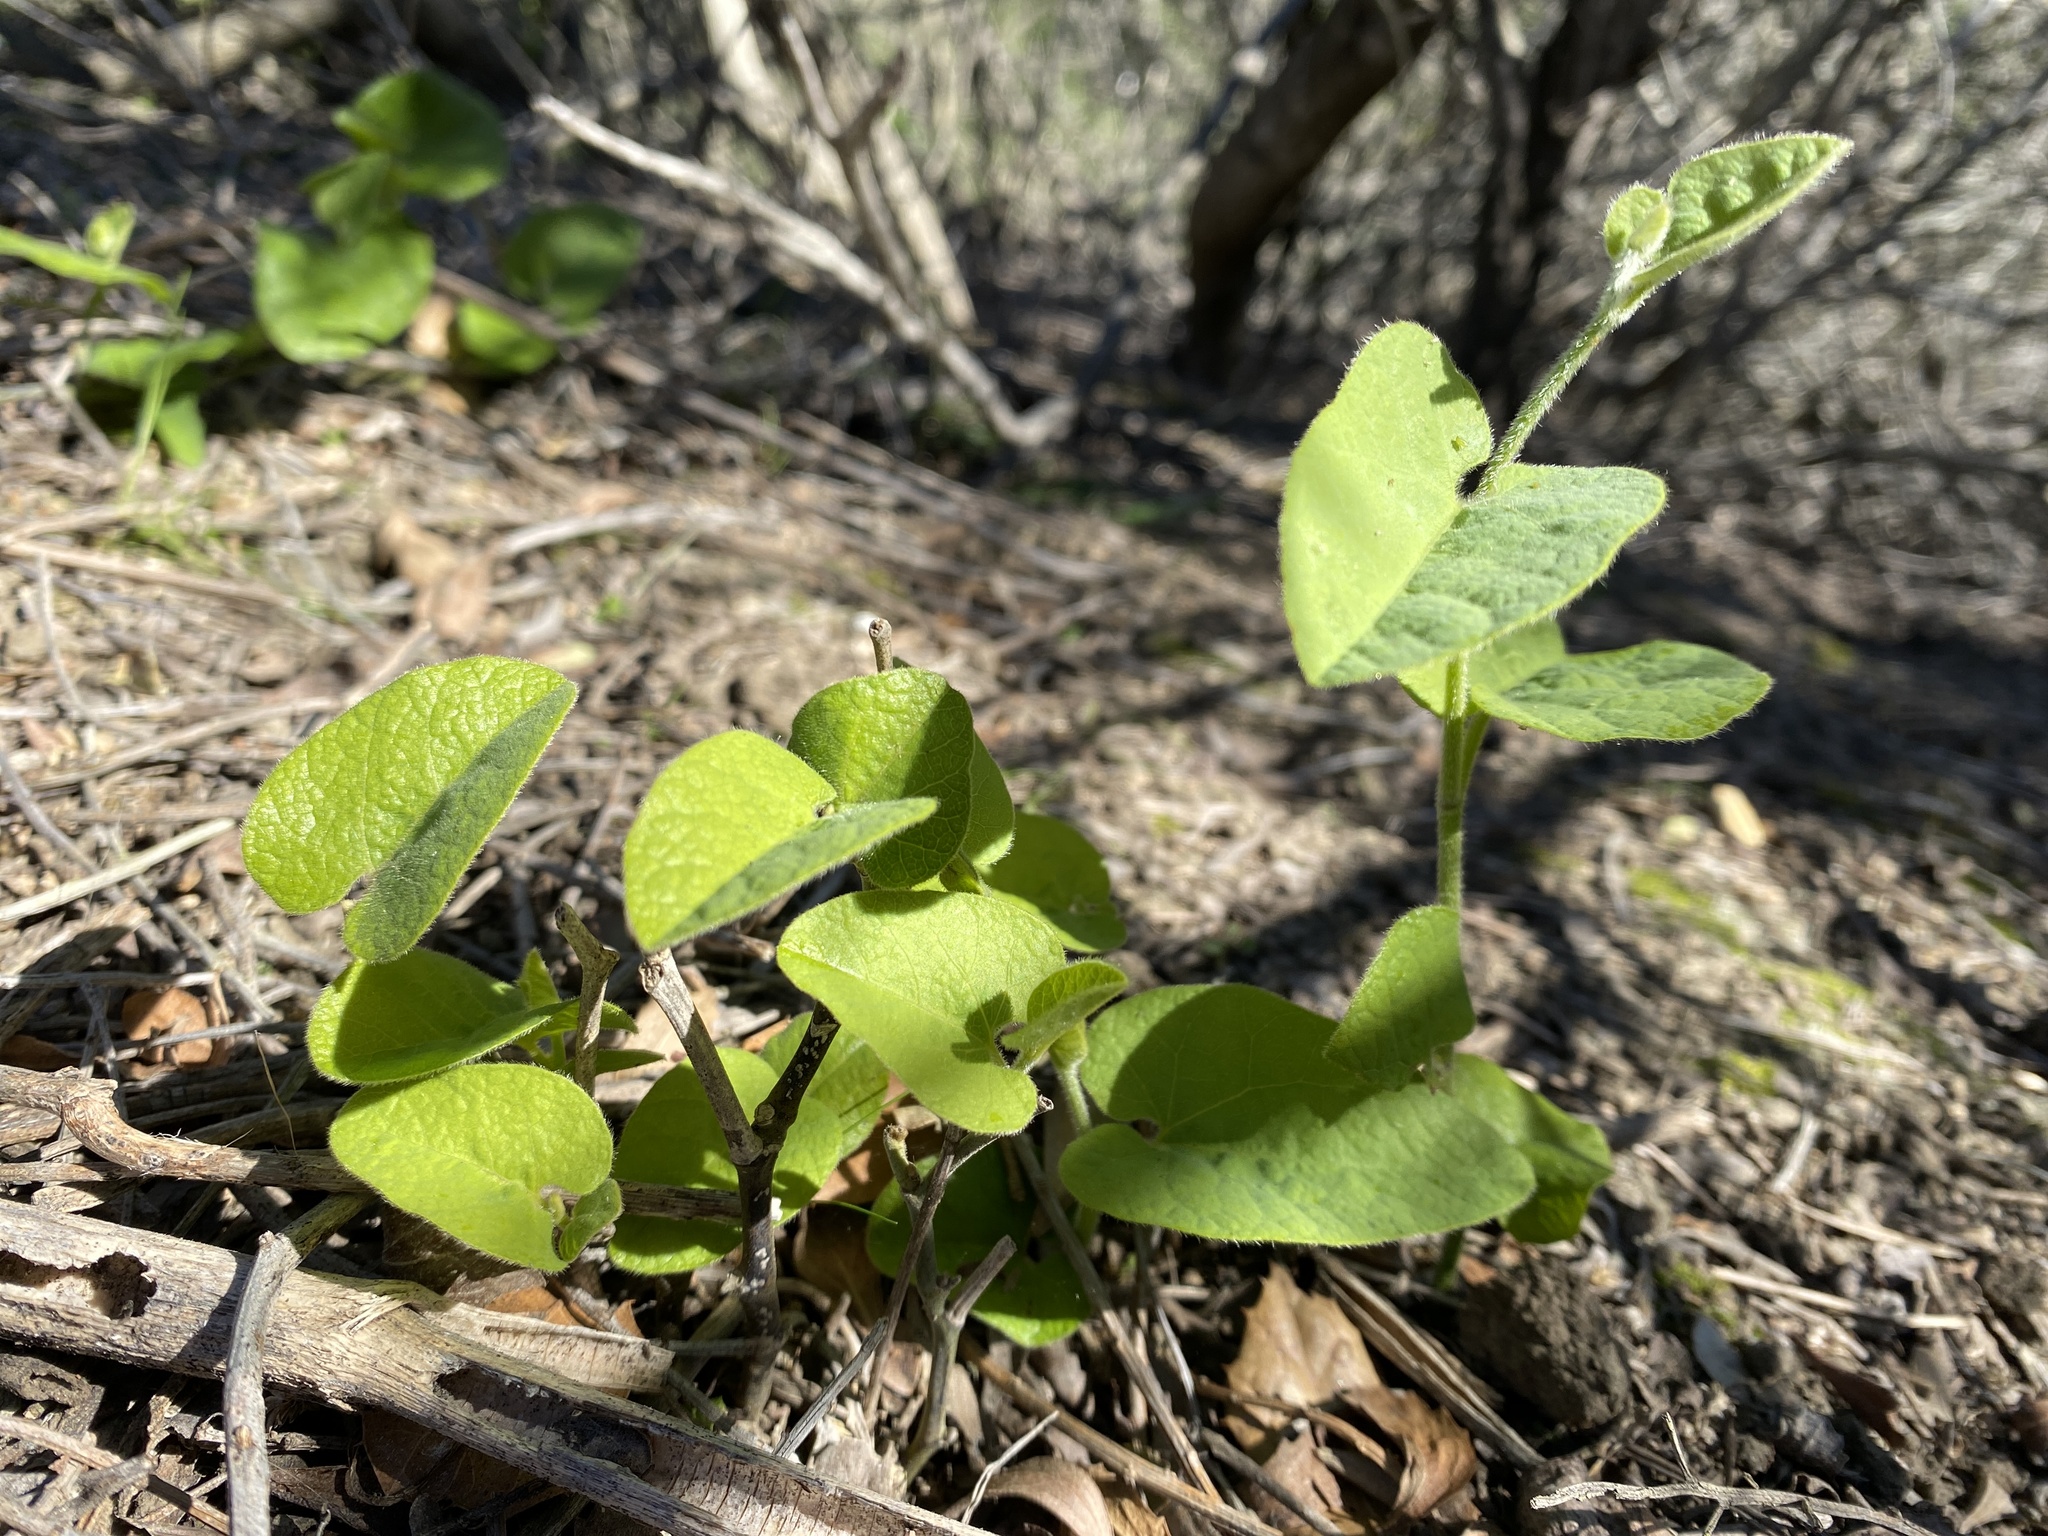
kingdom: Plantae
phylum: Tracheophyta
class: Magnoliopsida
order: Piperales
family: Aristolochiaceae
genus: Isotrema
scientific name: Isotrema californicum
